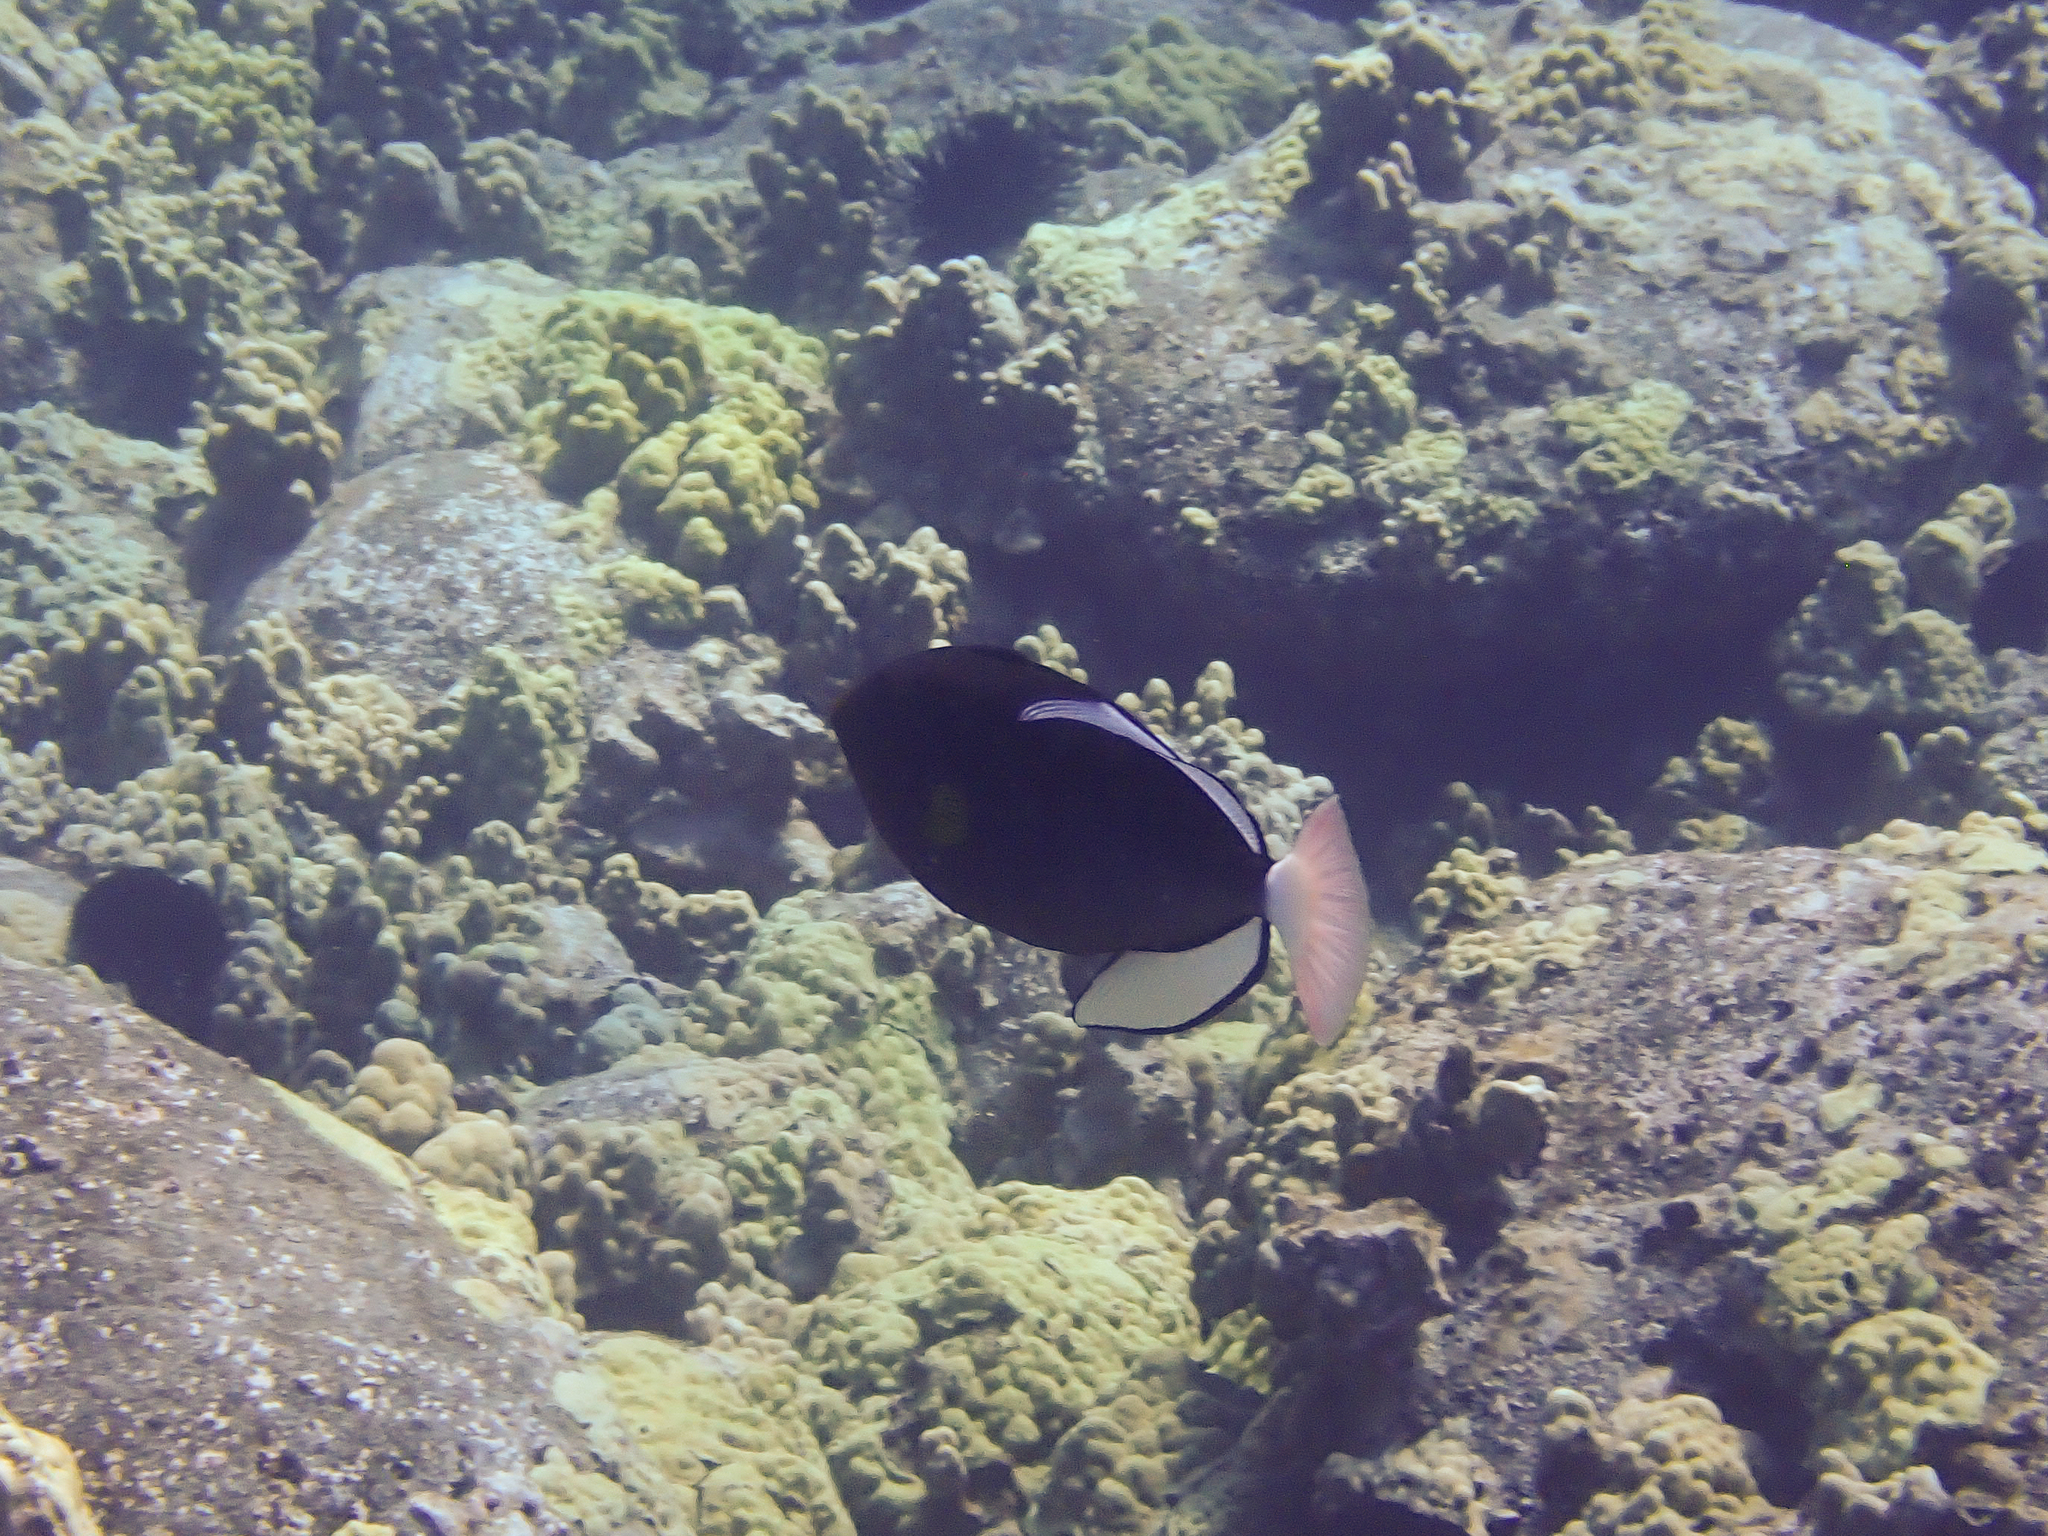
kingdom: Animalia
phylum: Chordata
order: Tetraodontiformes
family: Balistidae
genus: Melichthys
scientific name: Melichthys vidua
